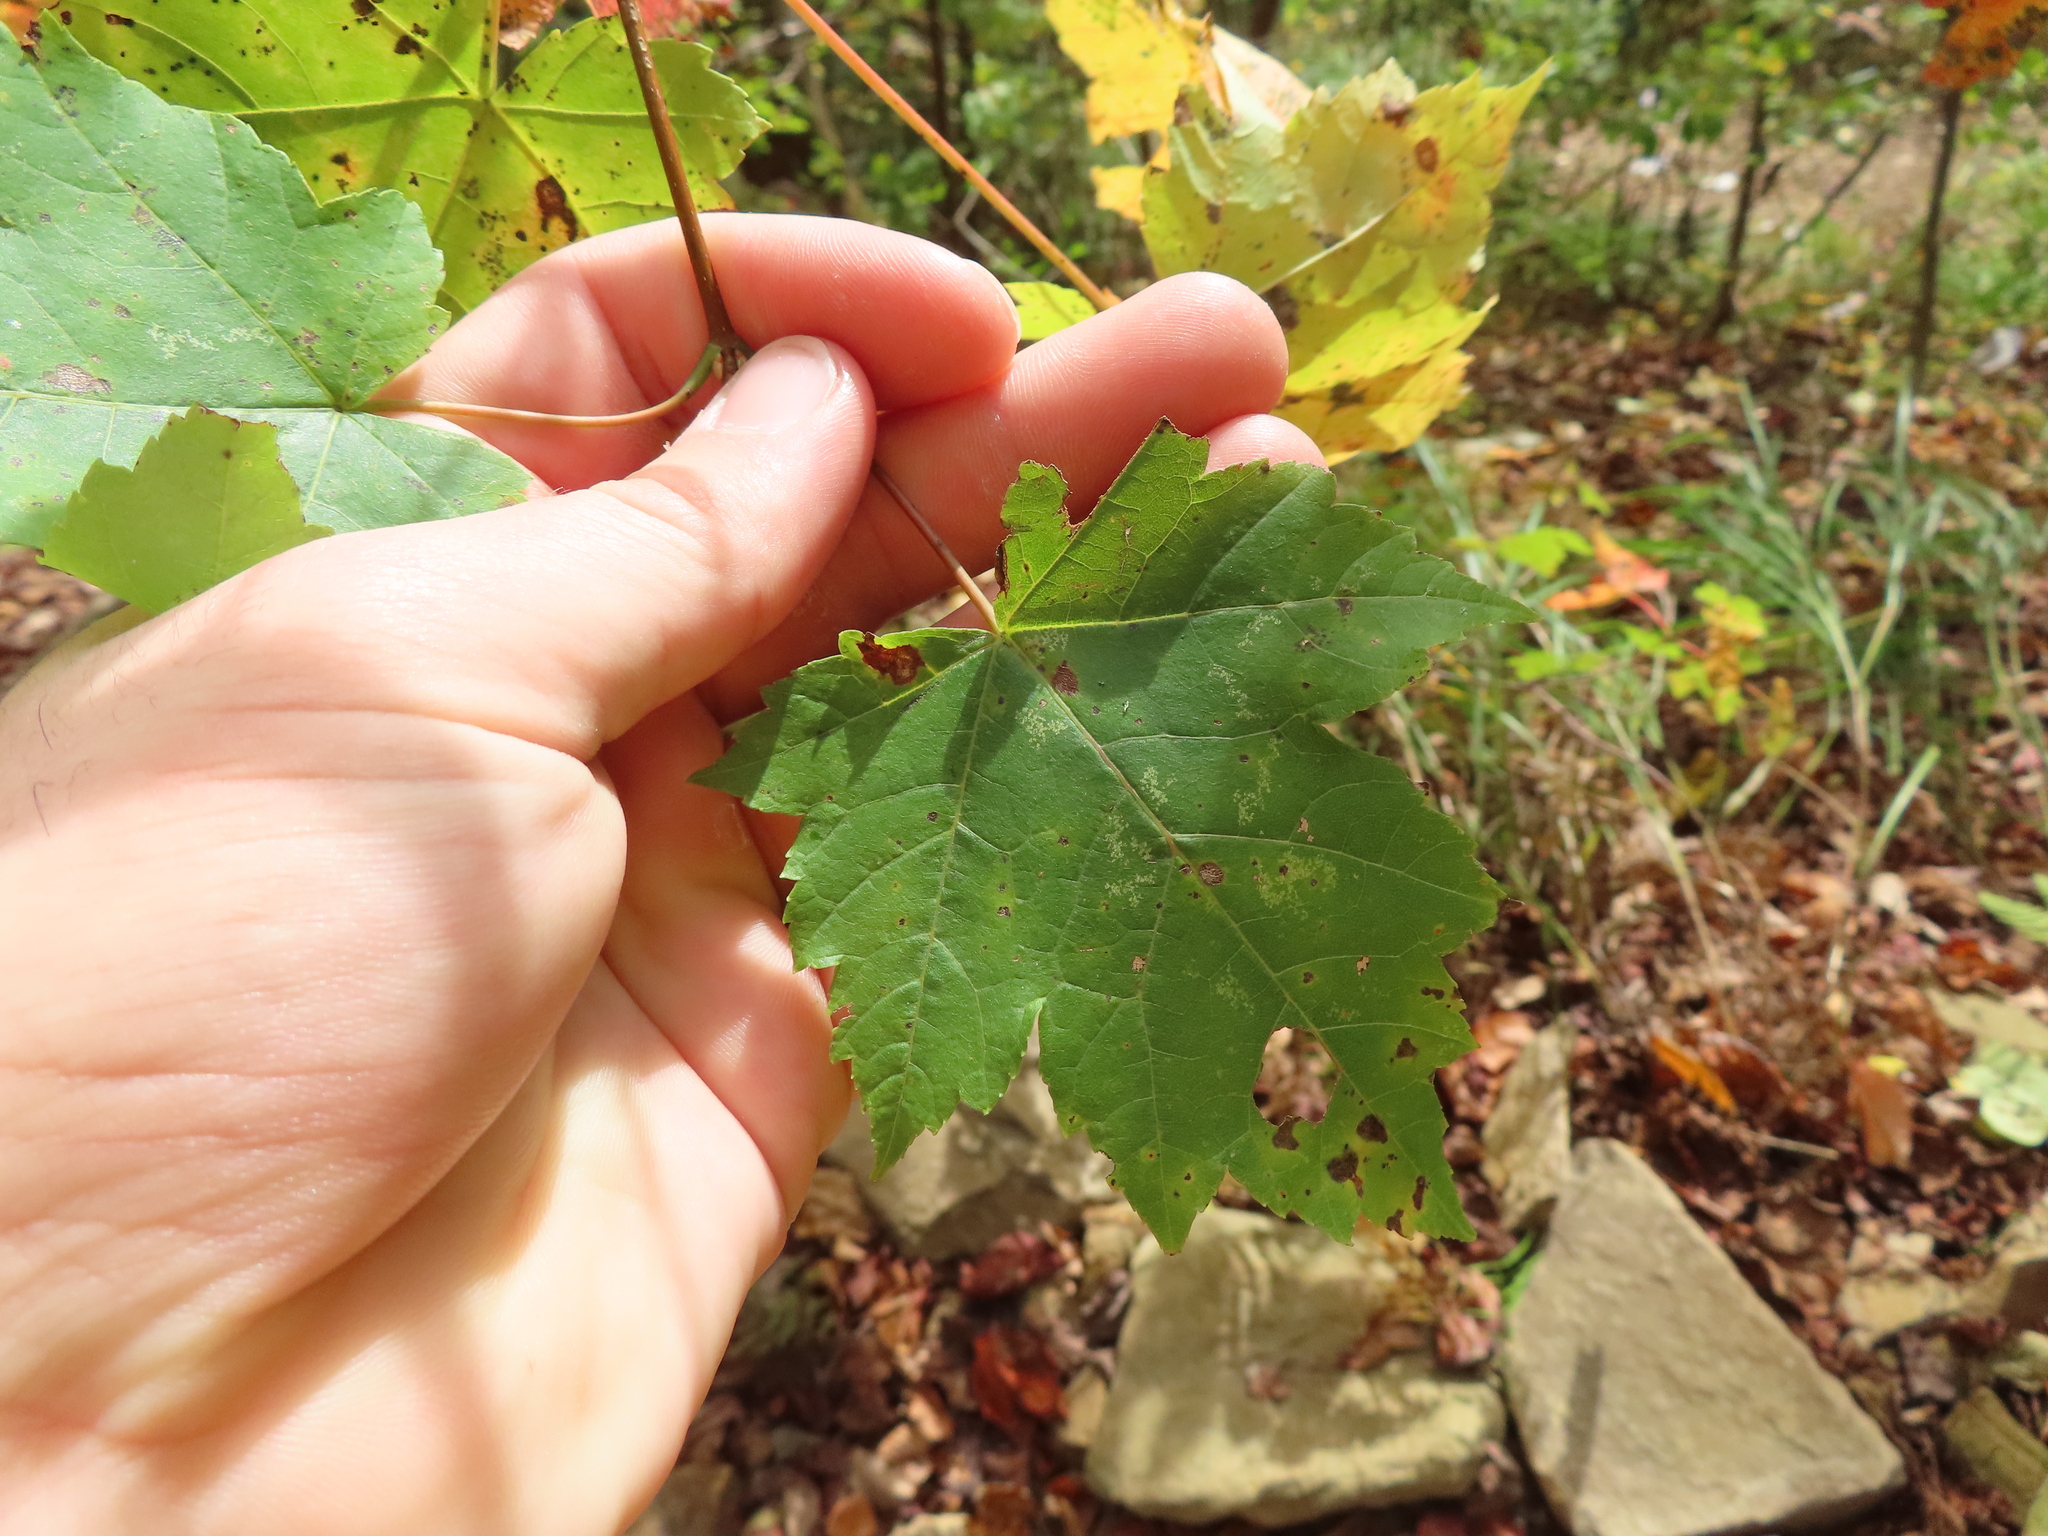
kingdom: Plantae
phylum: Tracheophyta
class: Magnoliopsida
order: Sapindales
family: Sapindaceae
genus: Acer
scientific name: Acer rubrum
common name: Red maple
